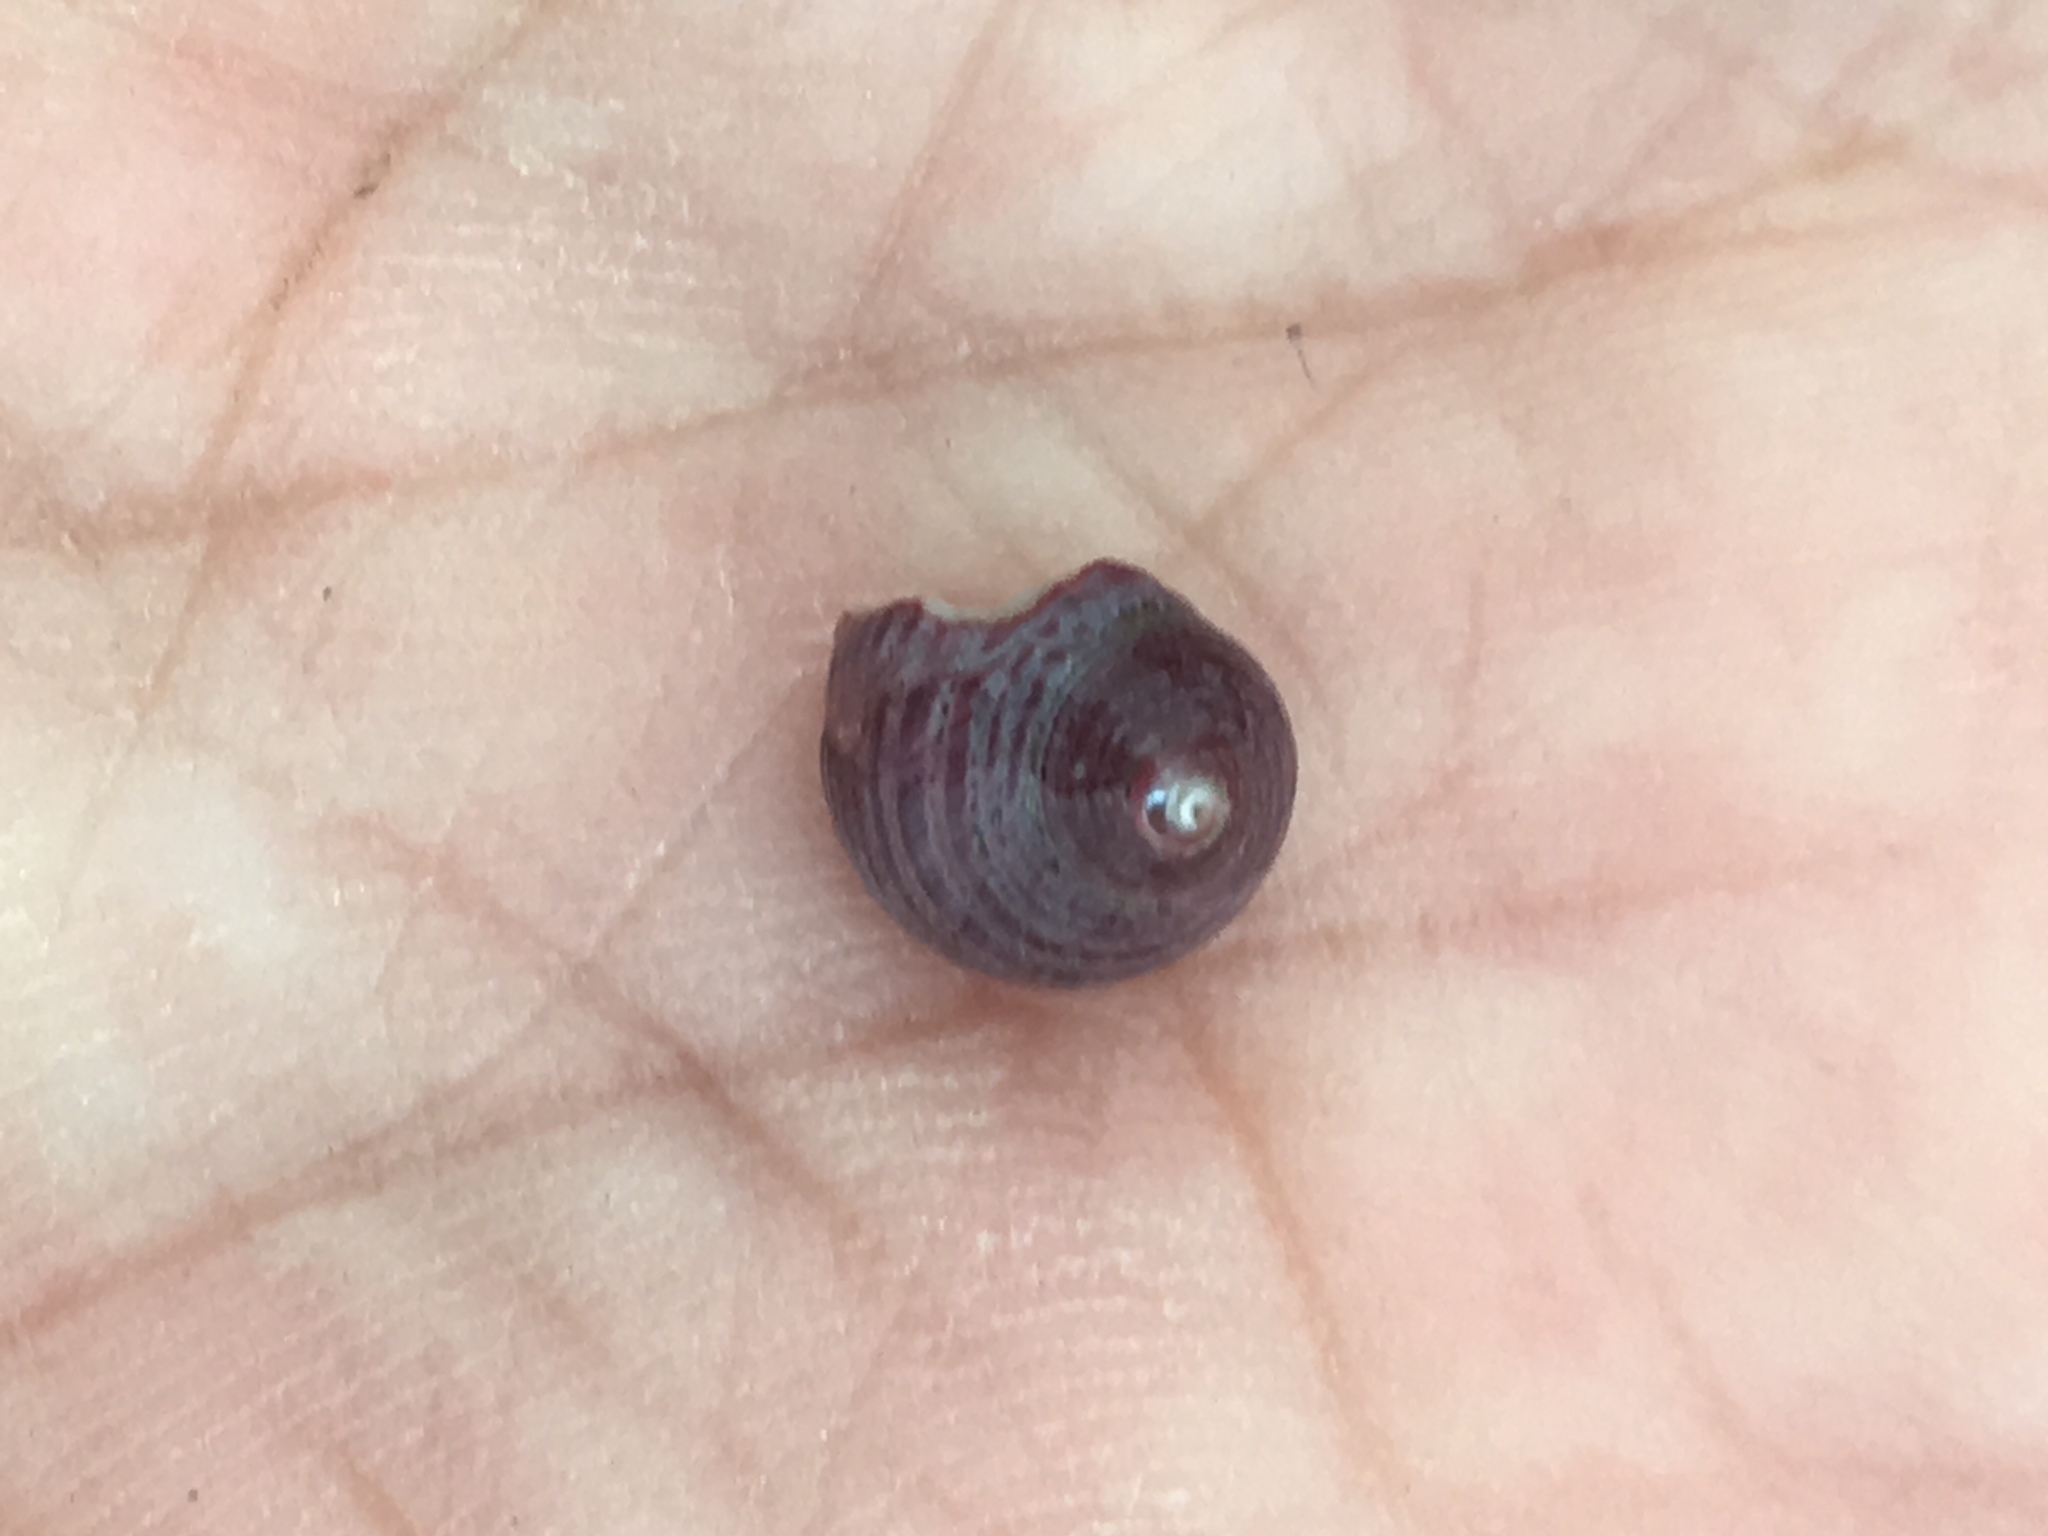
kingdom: Animalia
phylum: Mollusca
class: Gastropoda
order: Trochida
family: Colloniidae
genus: Gigahomalopoma
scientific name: Gigahomalopoma luridum
